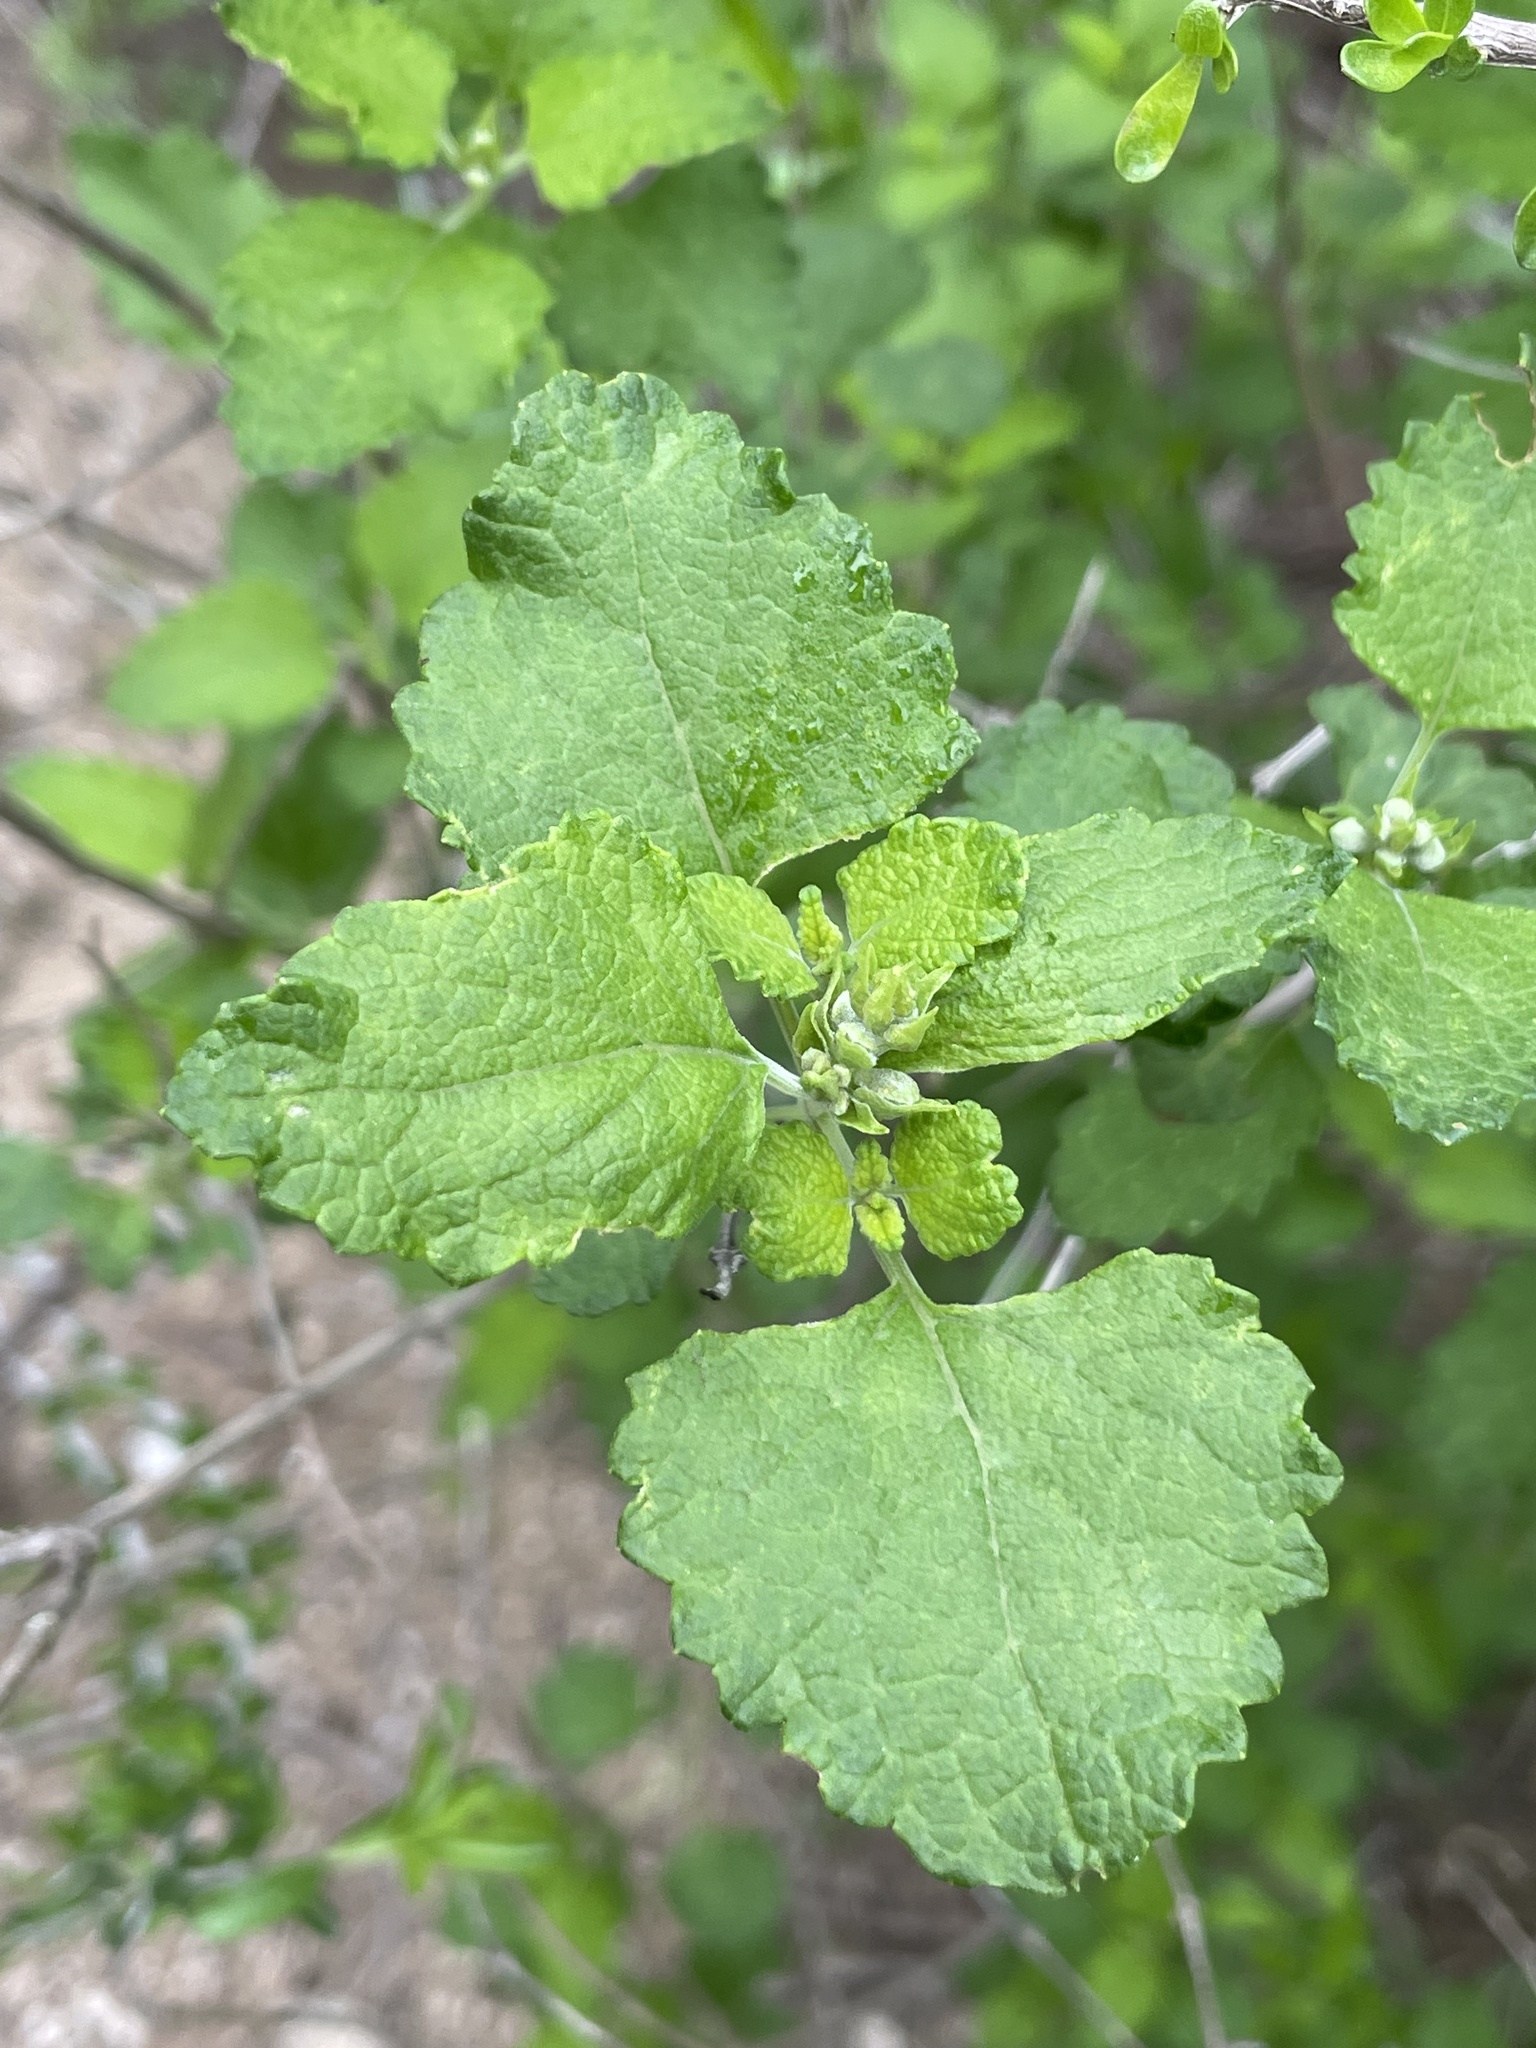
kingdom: Plantae
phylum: Tracheophyta
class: Magnoliopsida
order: Lamiales
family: Lamiaceae
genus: Salvia
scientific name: Salvia ballotiflora
